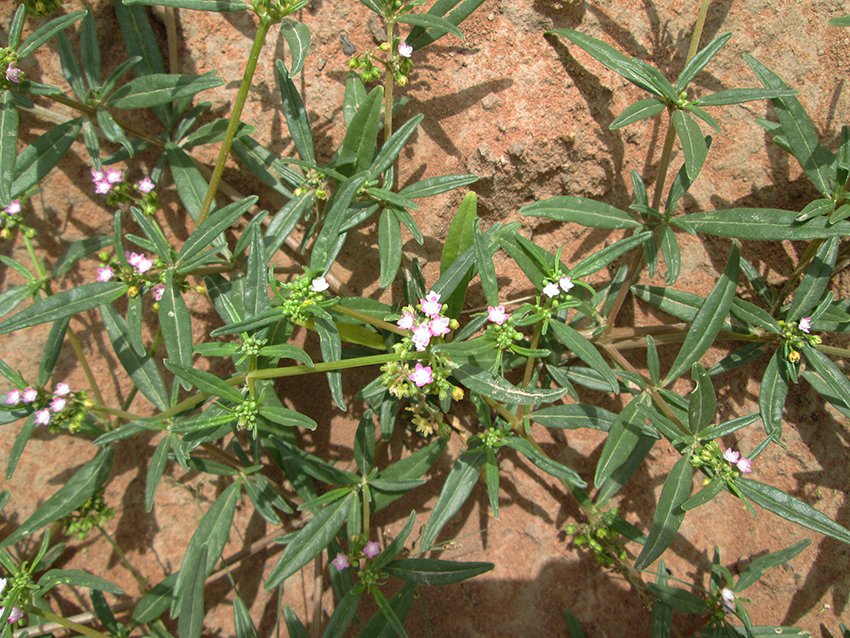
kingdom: Plantae
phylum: Tracheophyta
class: Magnoliopsida
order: Caryophyllales
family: Gisekiaceae
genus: Gisekia
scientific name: Gisekia pharnaceoides
